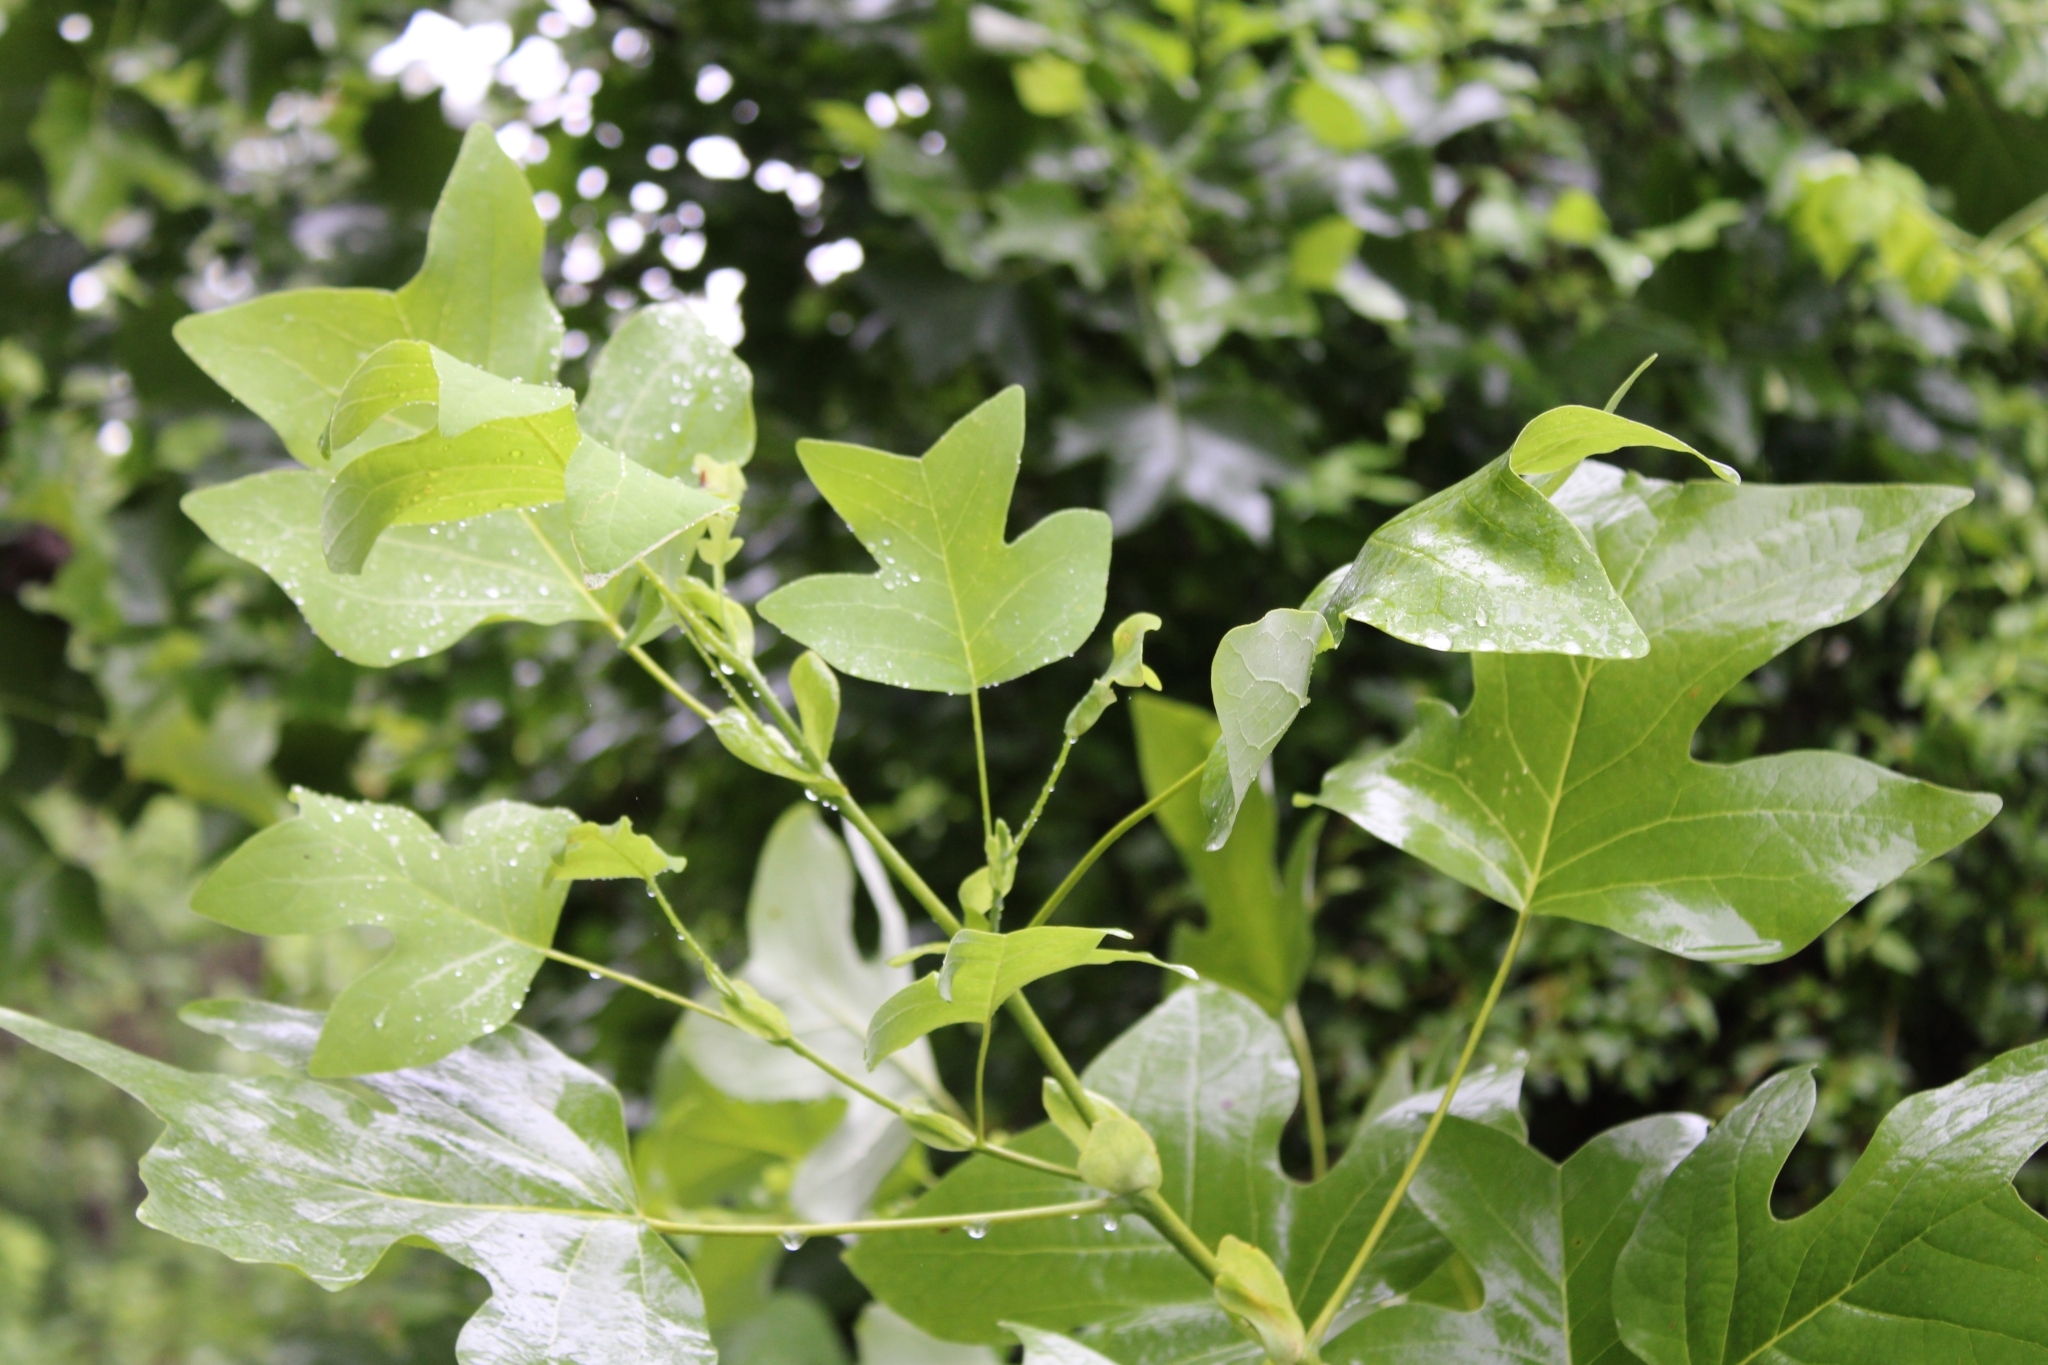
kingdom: Plantae
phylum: Tracheophyta
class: Magnoliopsida
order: Magnoliales
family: Magnoliaceae
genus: Liriodendron
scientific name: Liriodendron tulipifera
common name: Tulip tree
